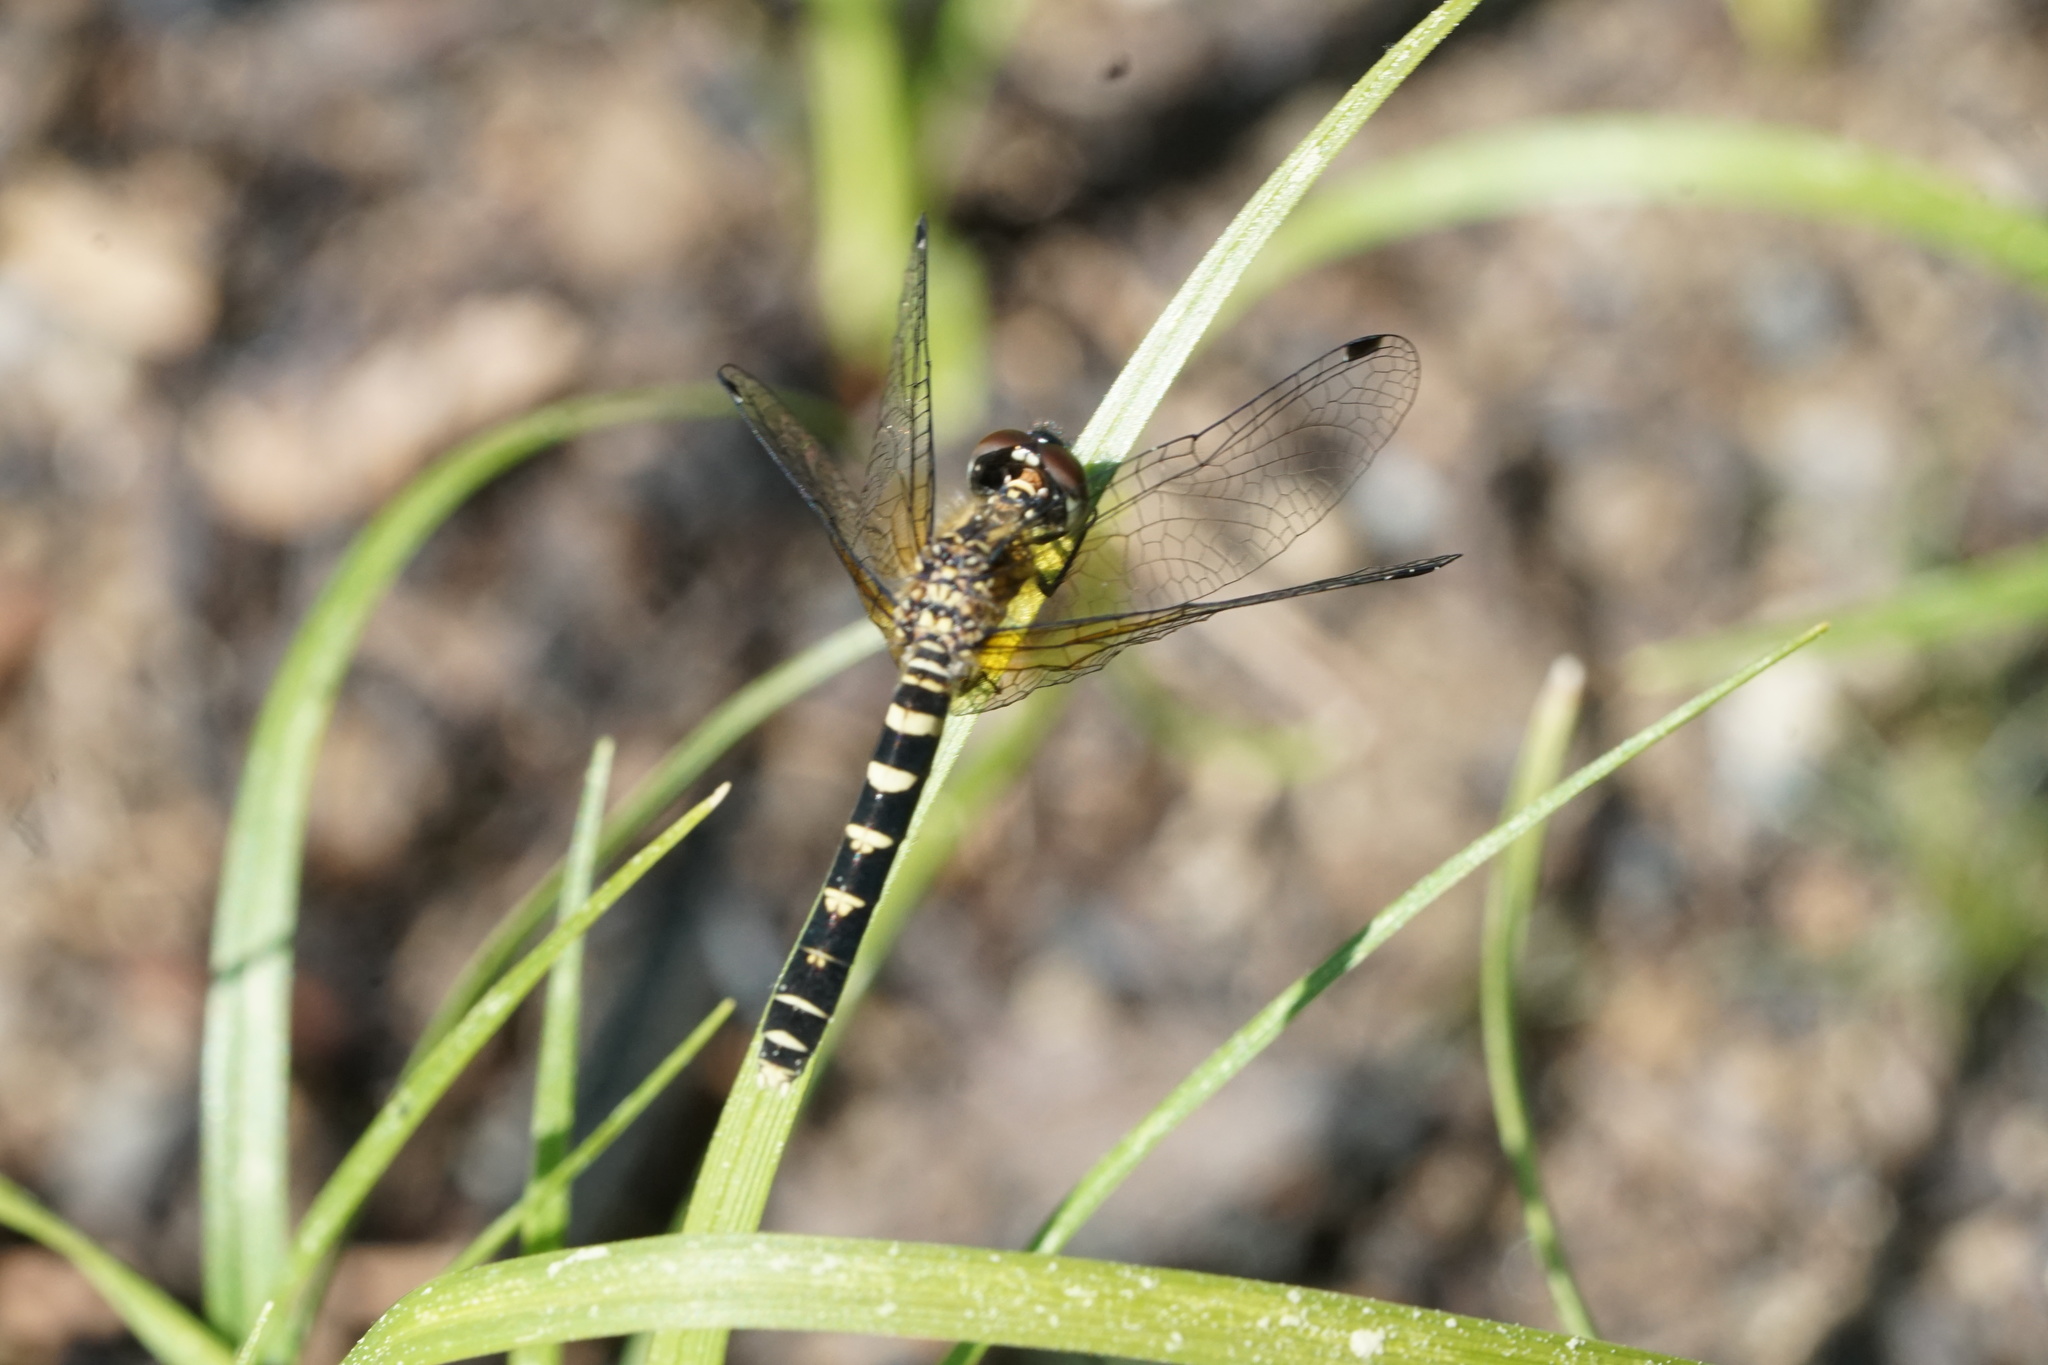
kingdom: Animalia
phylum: Arthropoda
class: Insecta
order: Odonata
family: Libellulidae
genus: Nannothemis
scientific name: Nannothemis bella
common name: Elfin skimmer
